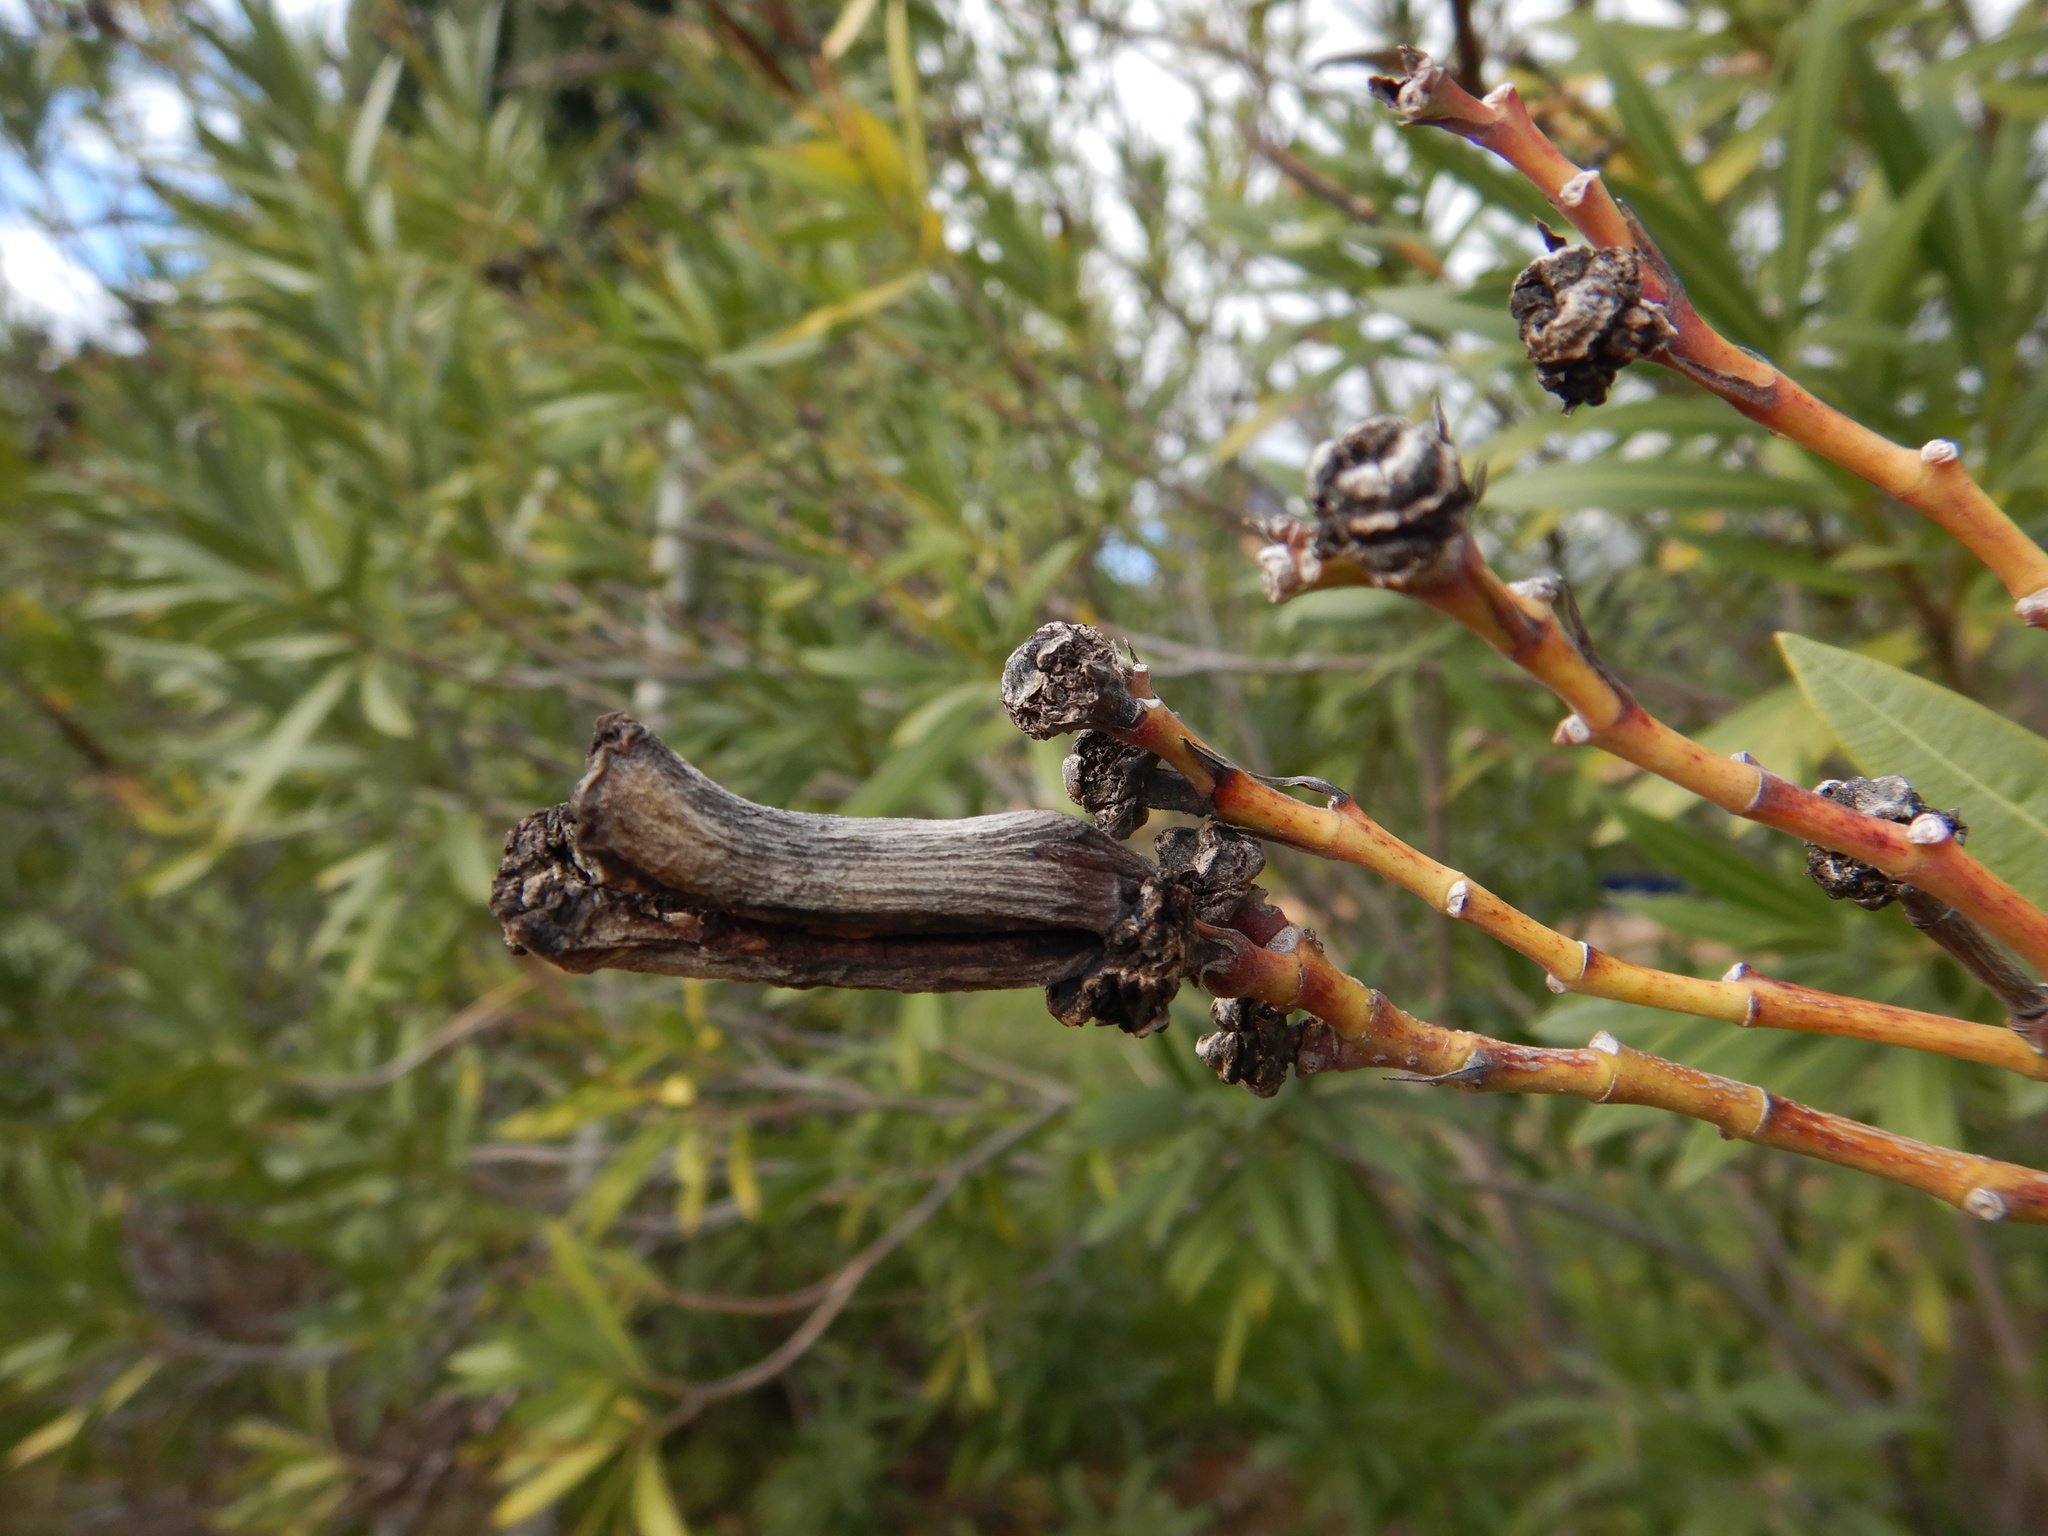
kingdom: Bacteria
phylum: Proteobacteria
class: Gammaproteobacteria
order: Pseudomonadales
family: Pseudomonadaceae
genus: Pseudomonas
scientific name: Pseudomonas
